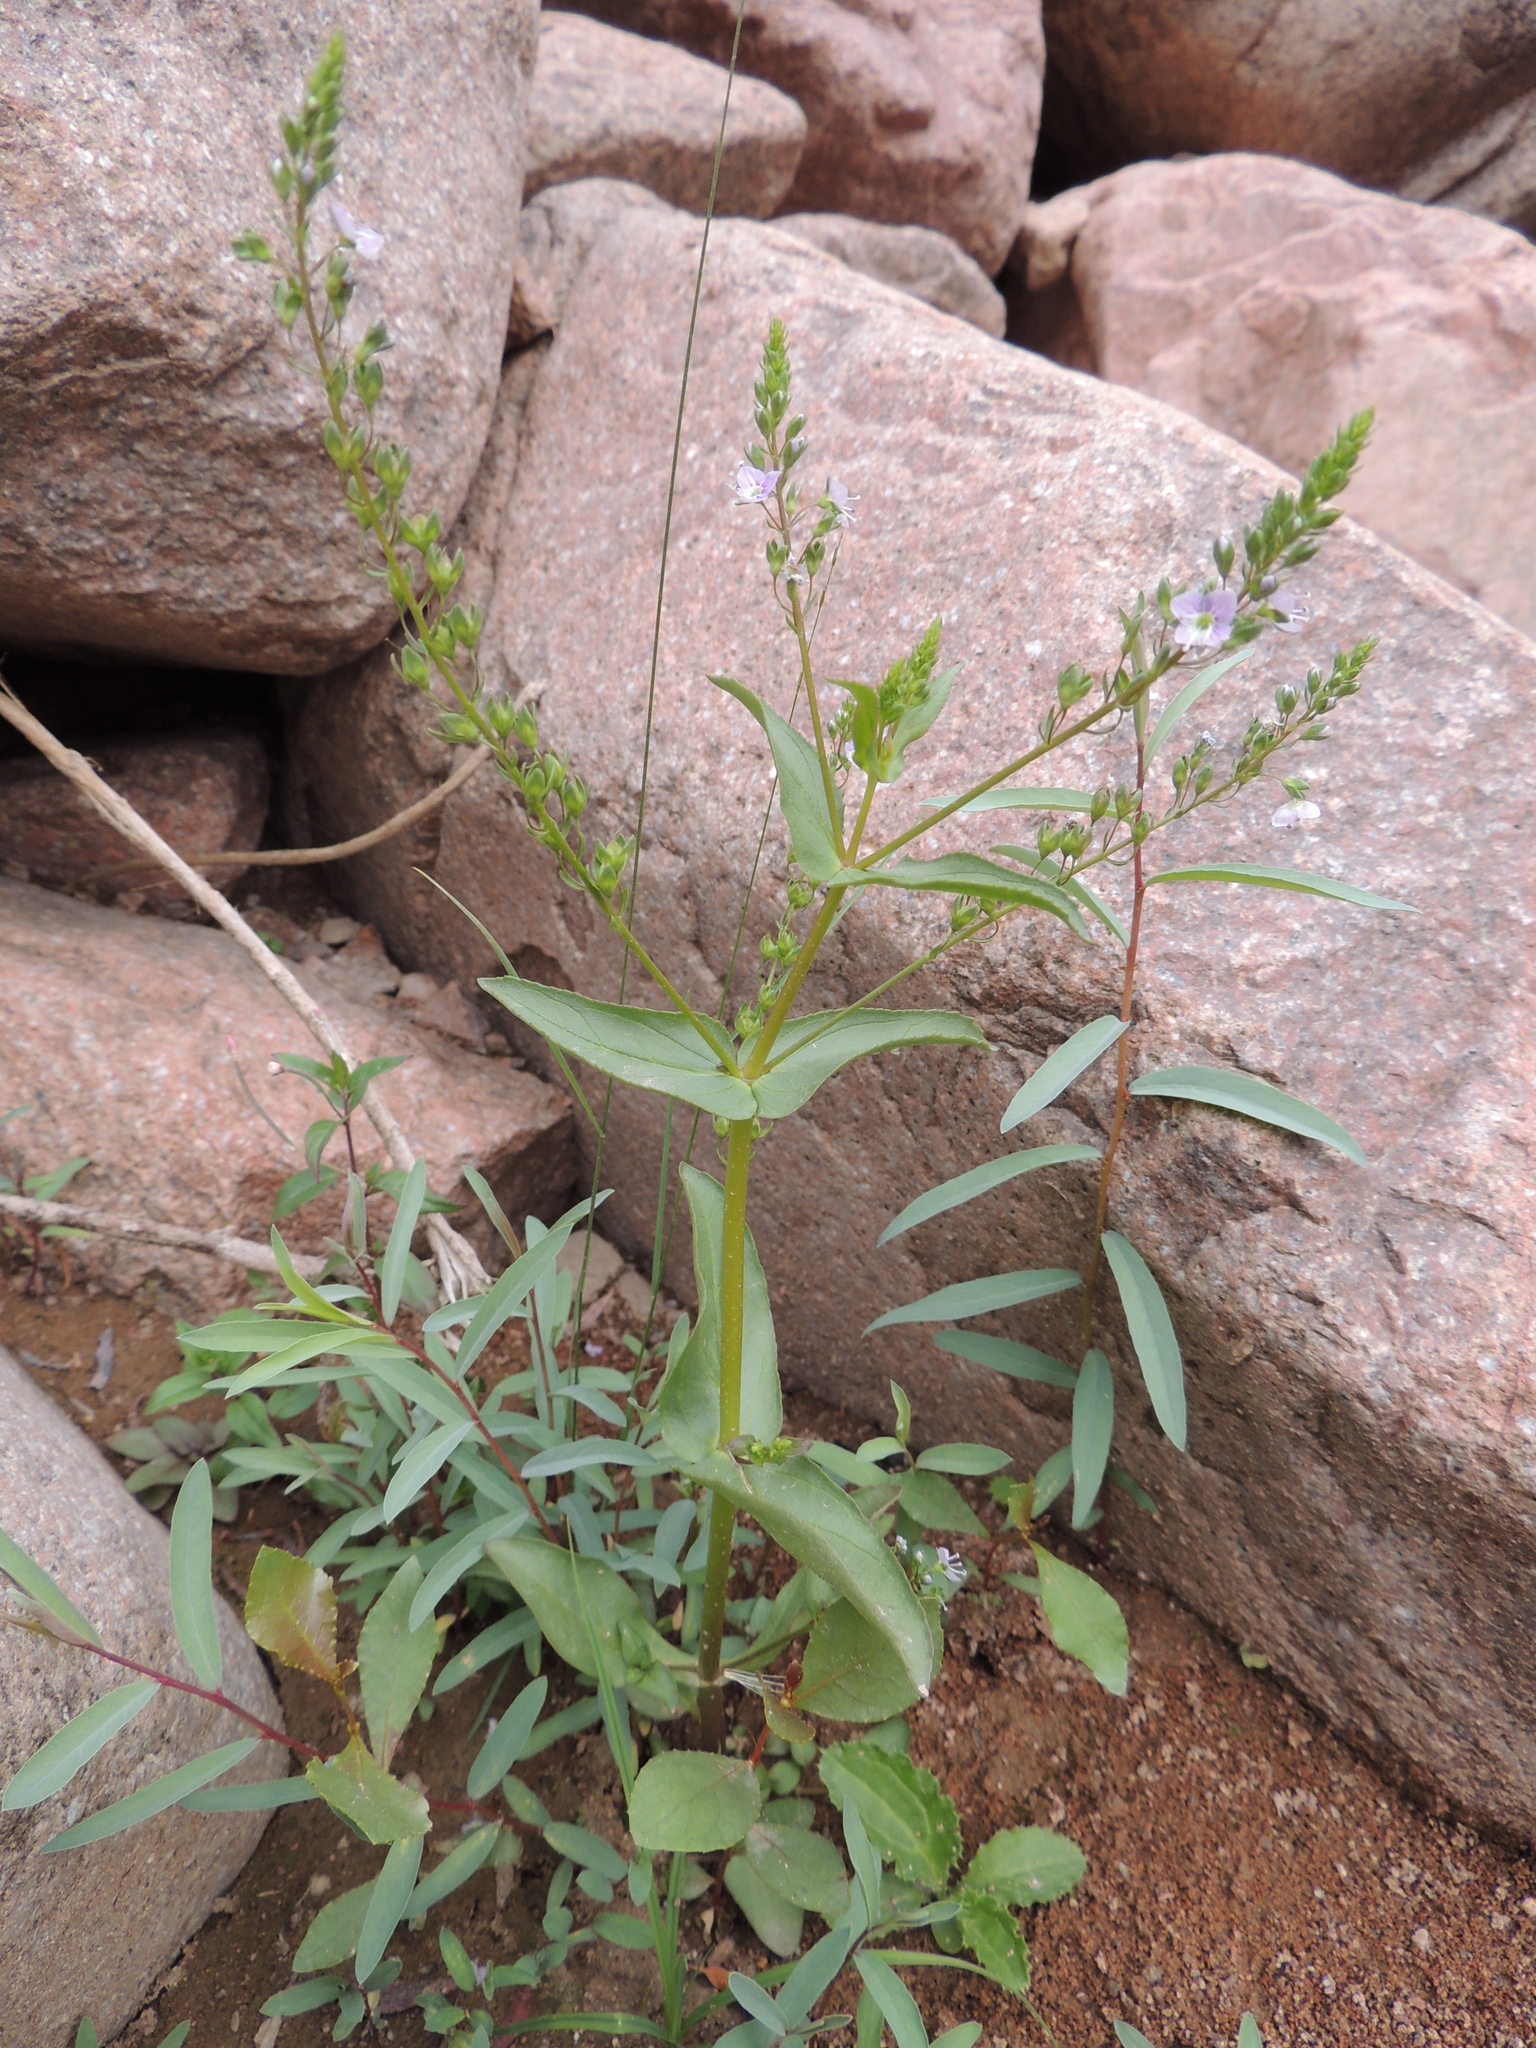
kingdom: Plantae
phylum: Tracheophyta
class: Magnoliopsida
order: Lamiales
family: Plantaginaceae
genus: Veronica
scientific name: Veronica anagallis-aquatica
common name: Water speedwell
